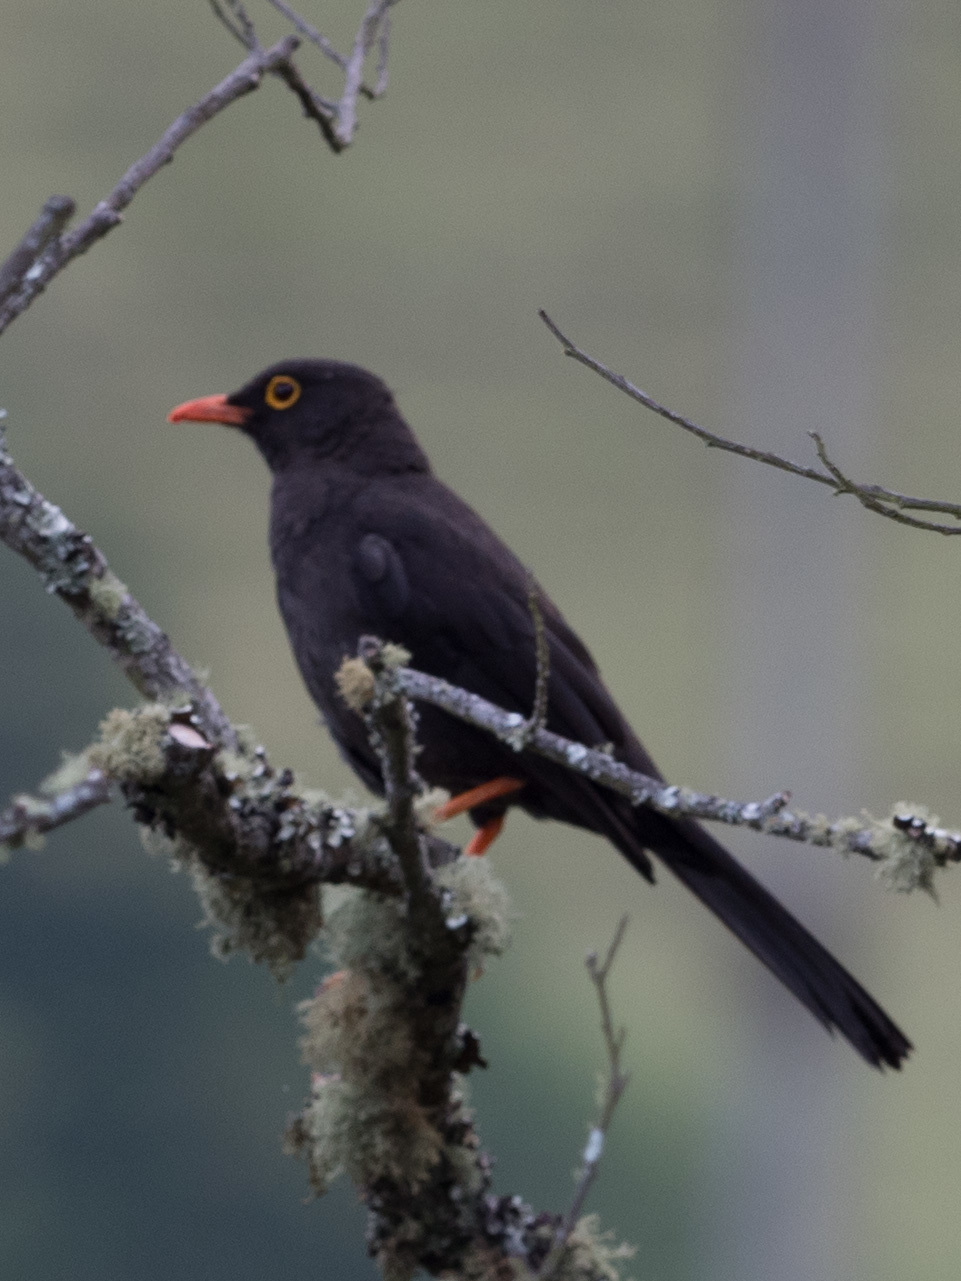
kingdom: Animalia
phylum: Chordata
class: Aves
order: Passeriformes
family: Turdidae
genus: Turdus
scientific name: Turdus fuscater
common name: Great thrush
